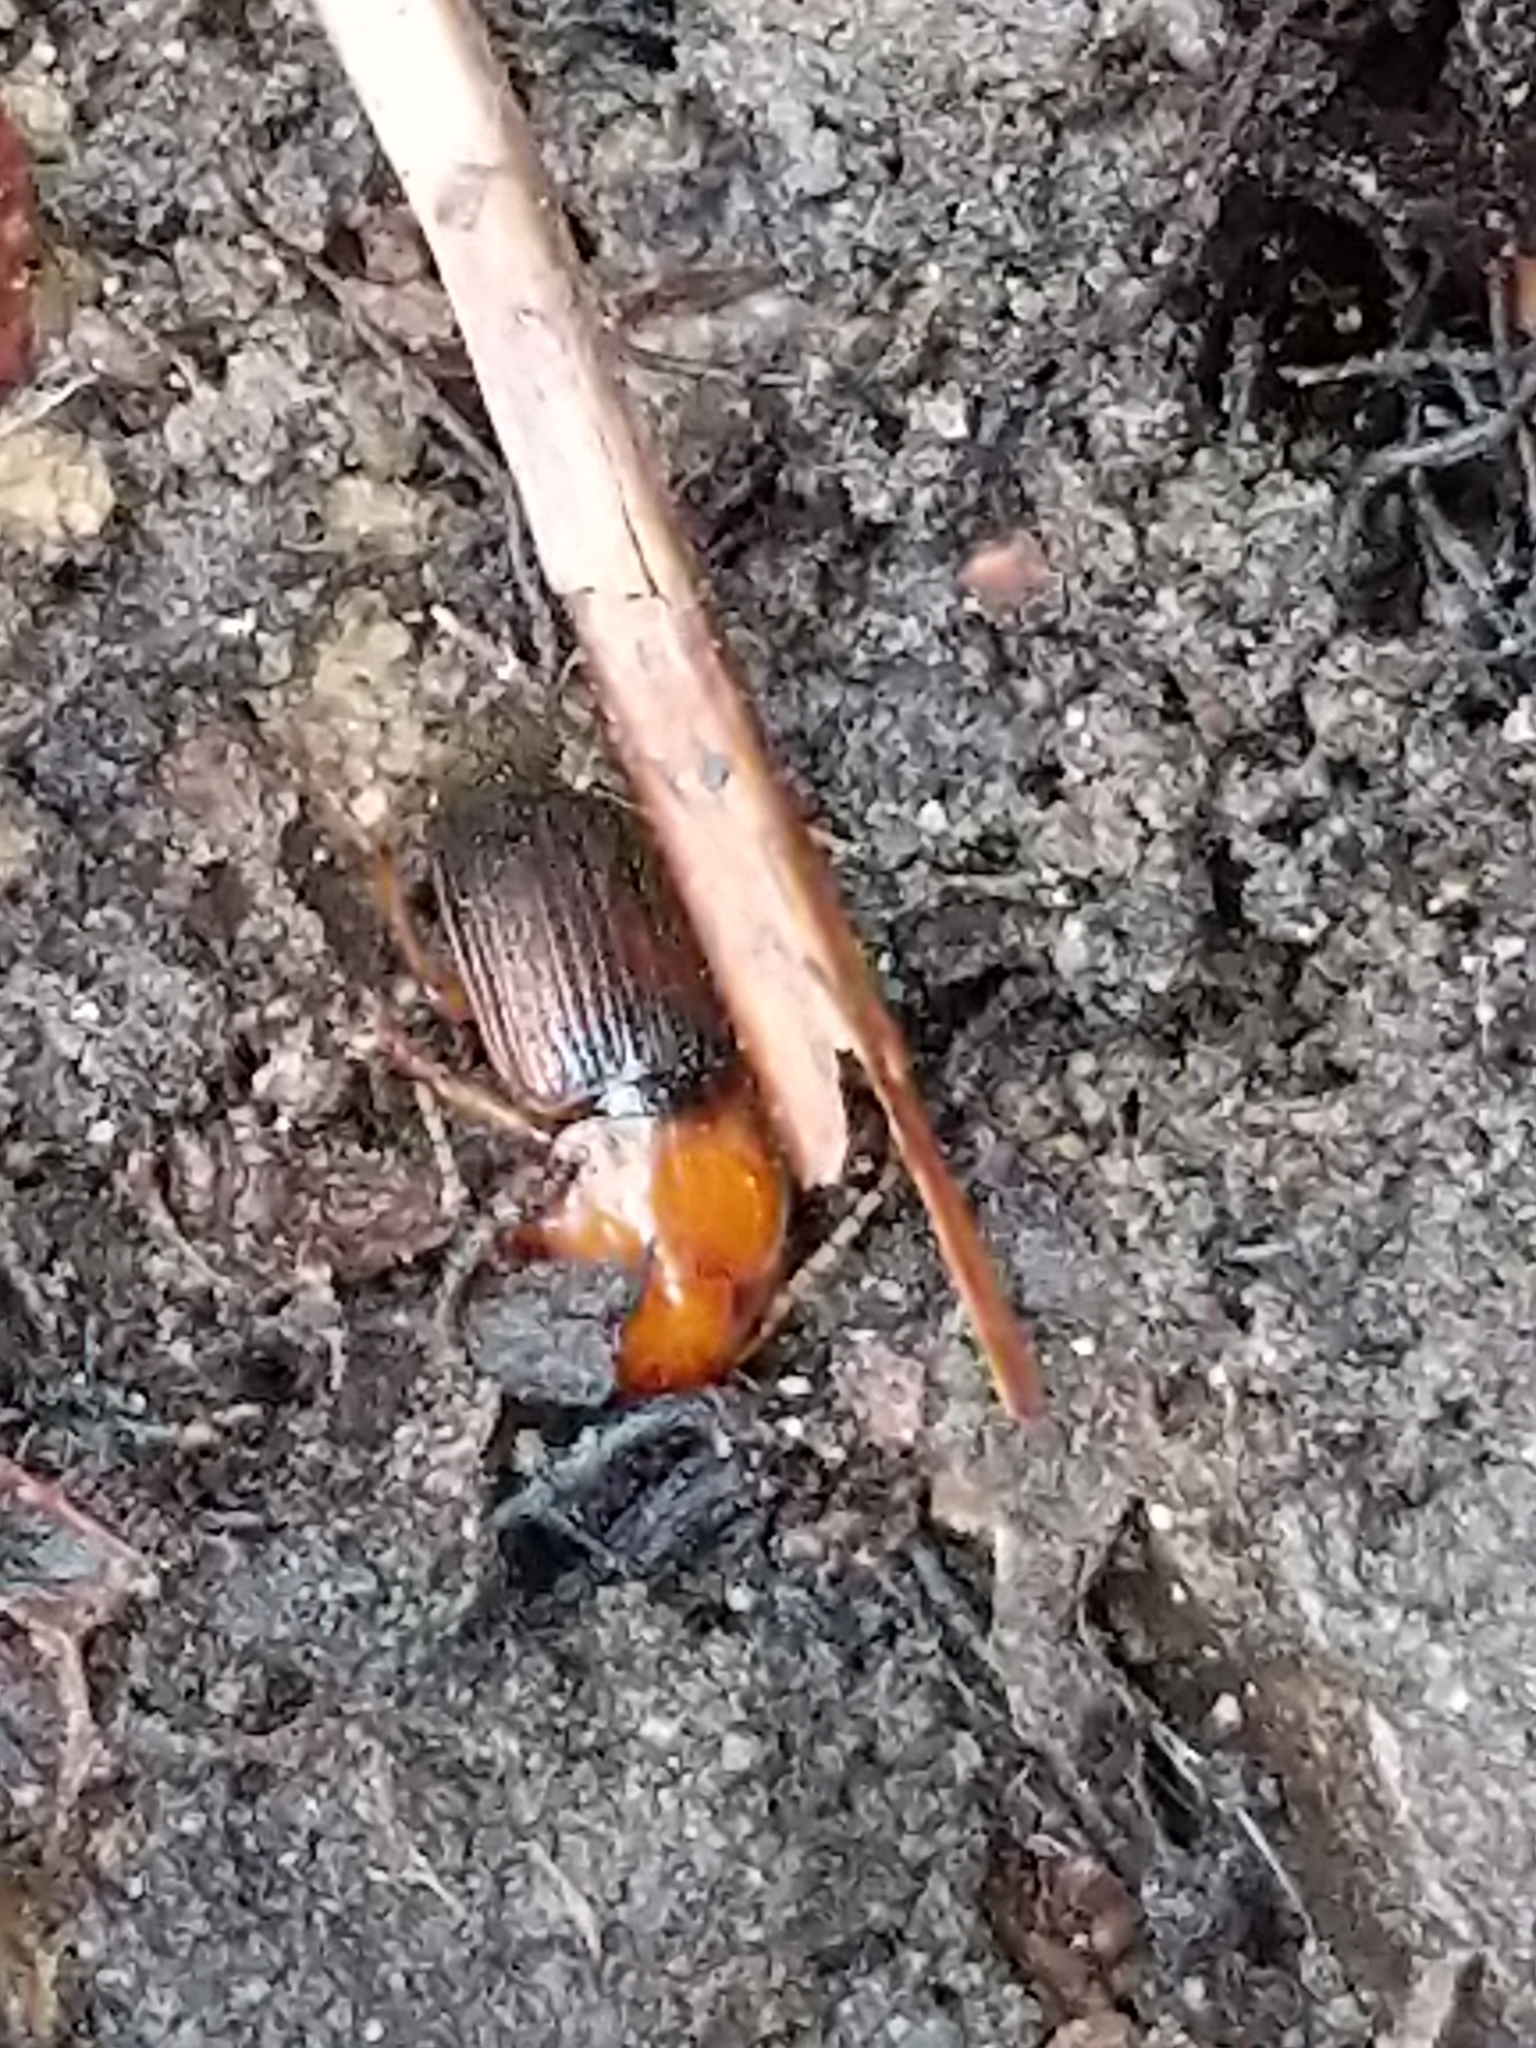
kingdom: Animalia
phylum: Arthropoda
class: Insecta
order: Coleoptera
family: Carabidae
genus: Amphasia
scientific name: Amphasia interstitialis
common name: Red-headed ground beetle
